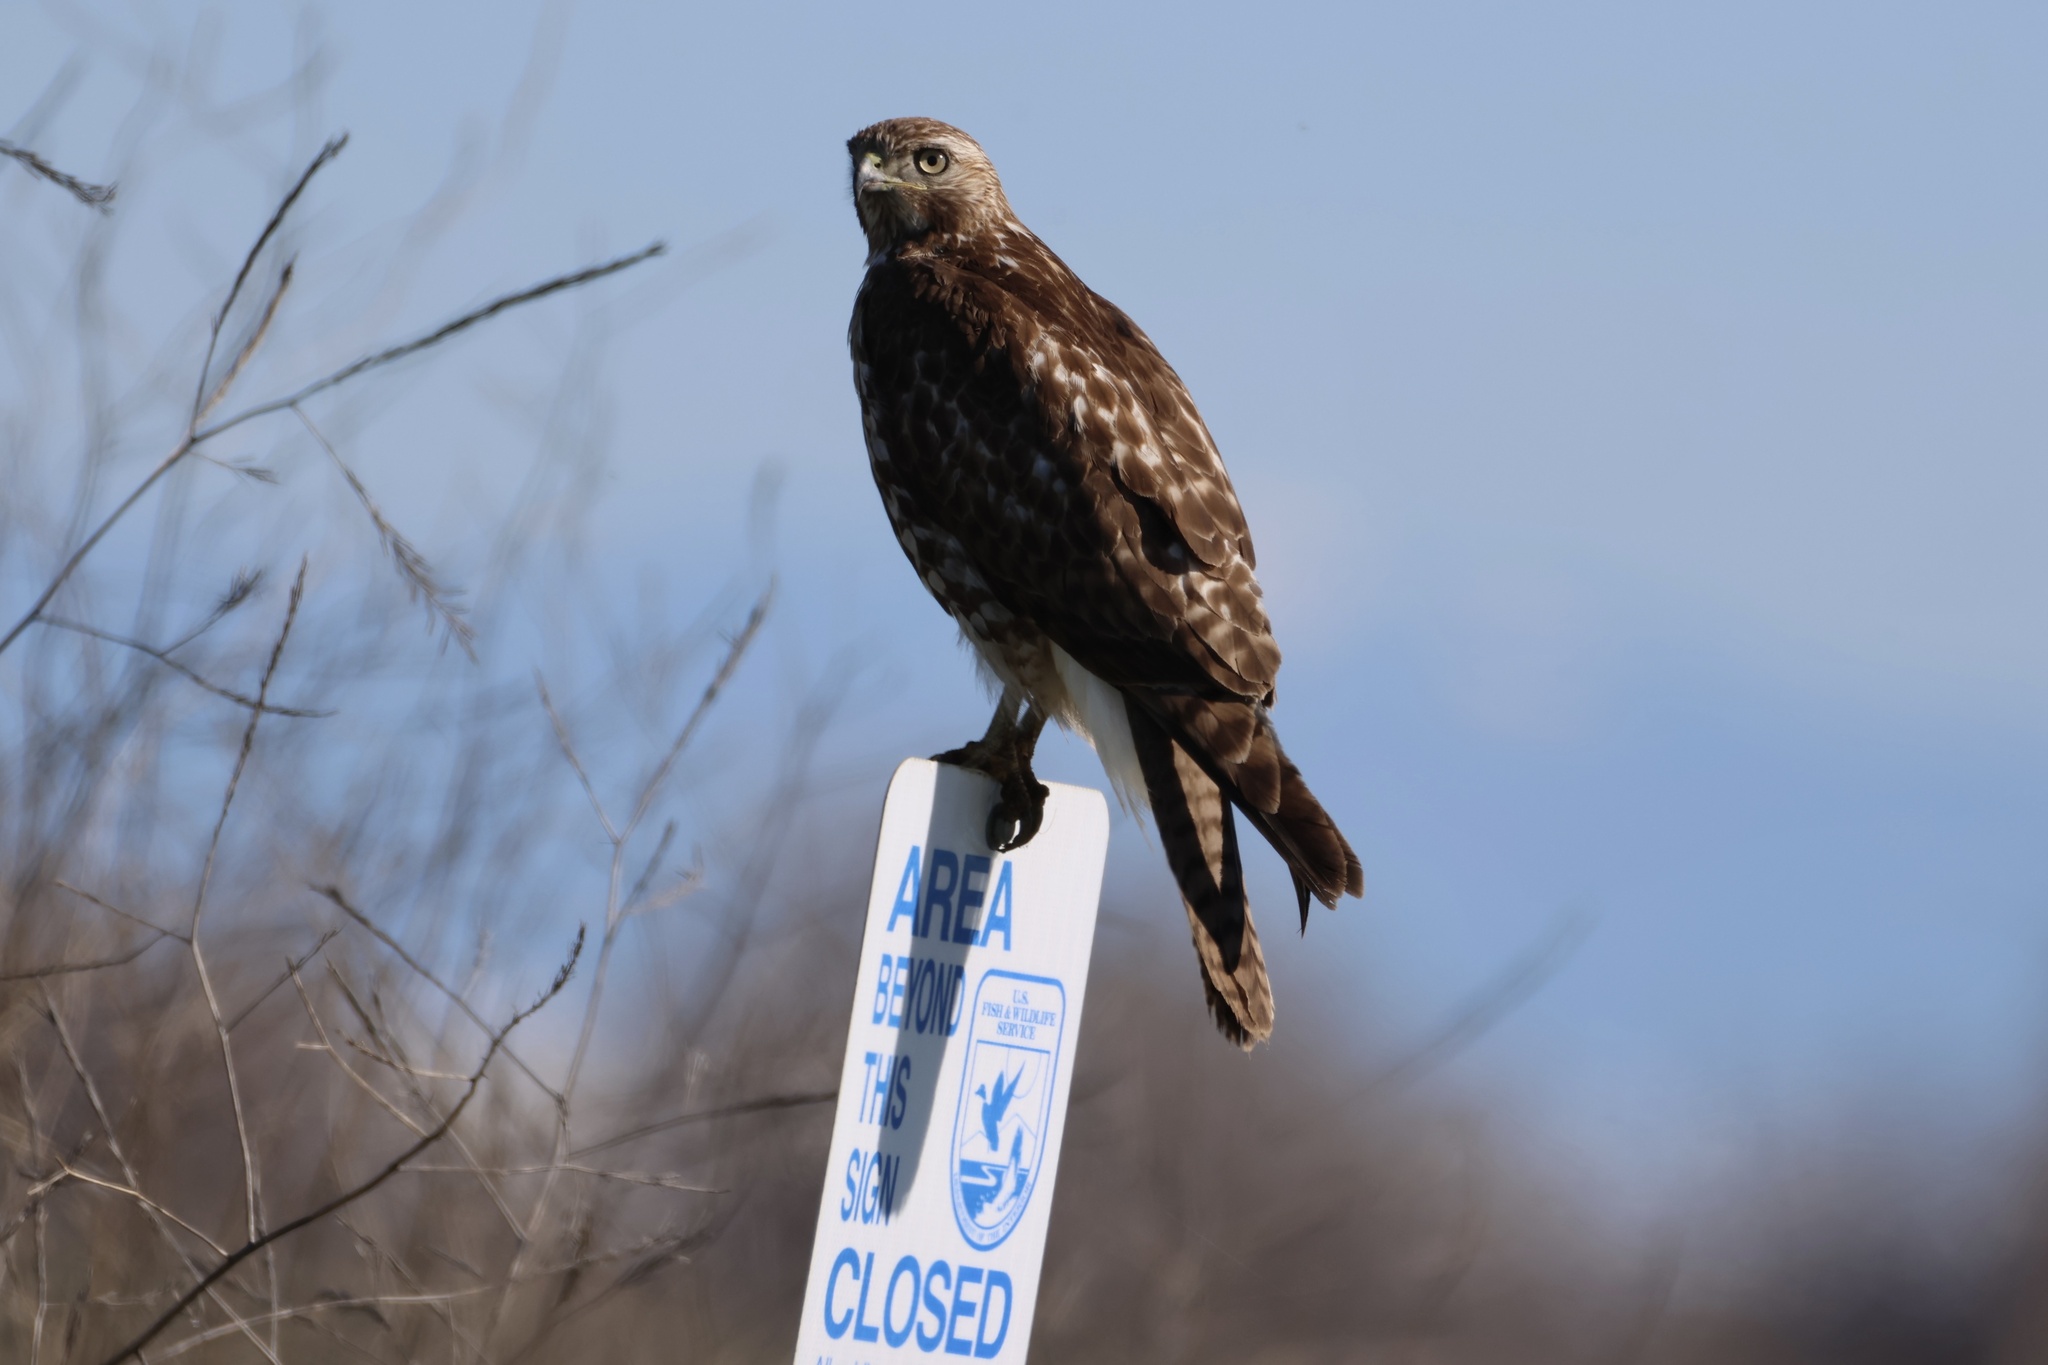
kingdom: Animalia
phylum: Chordata
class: Aves
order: Accipitriformes
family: Accipitridae
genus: Buteo
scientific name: Buteo jamaicensis
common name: Red-tailed hawk
